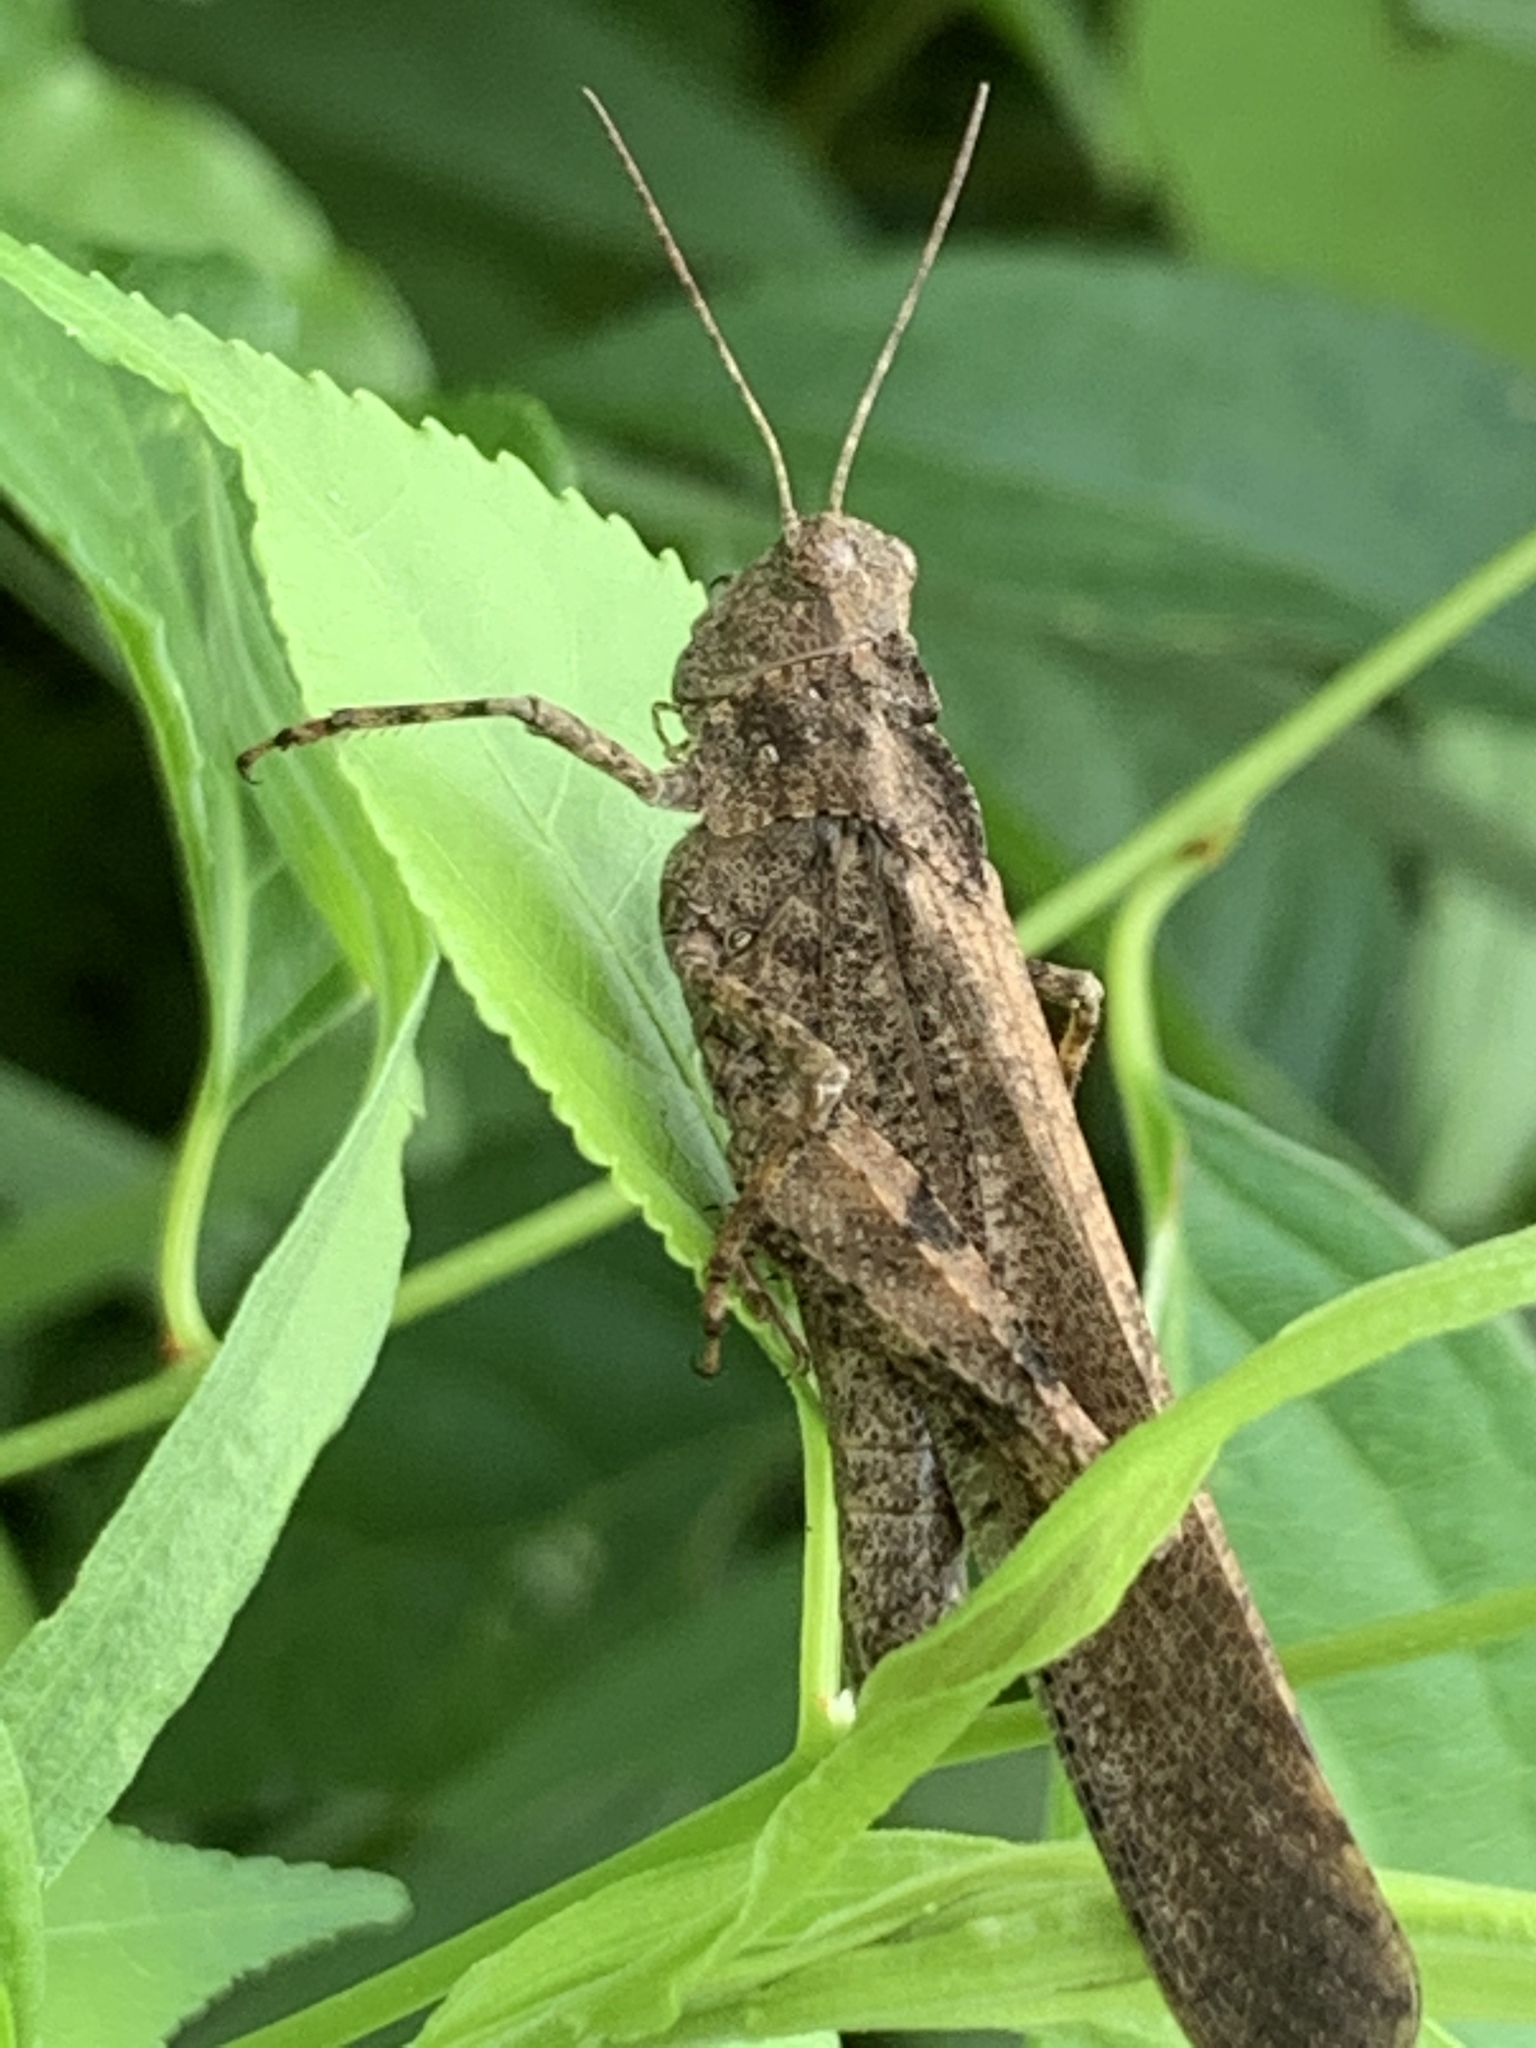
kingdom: Animalia
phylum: Arthropoda
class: Insecta
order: Orthoptera
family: Acrididae
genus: Dissosteira
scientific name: Dissosteira carolina
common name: Carolina grasshopper
